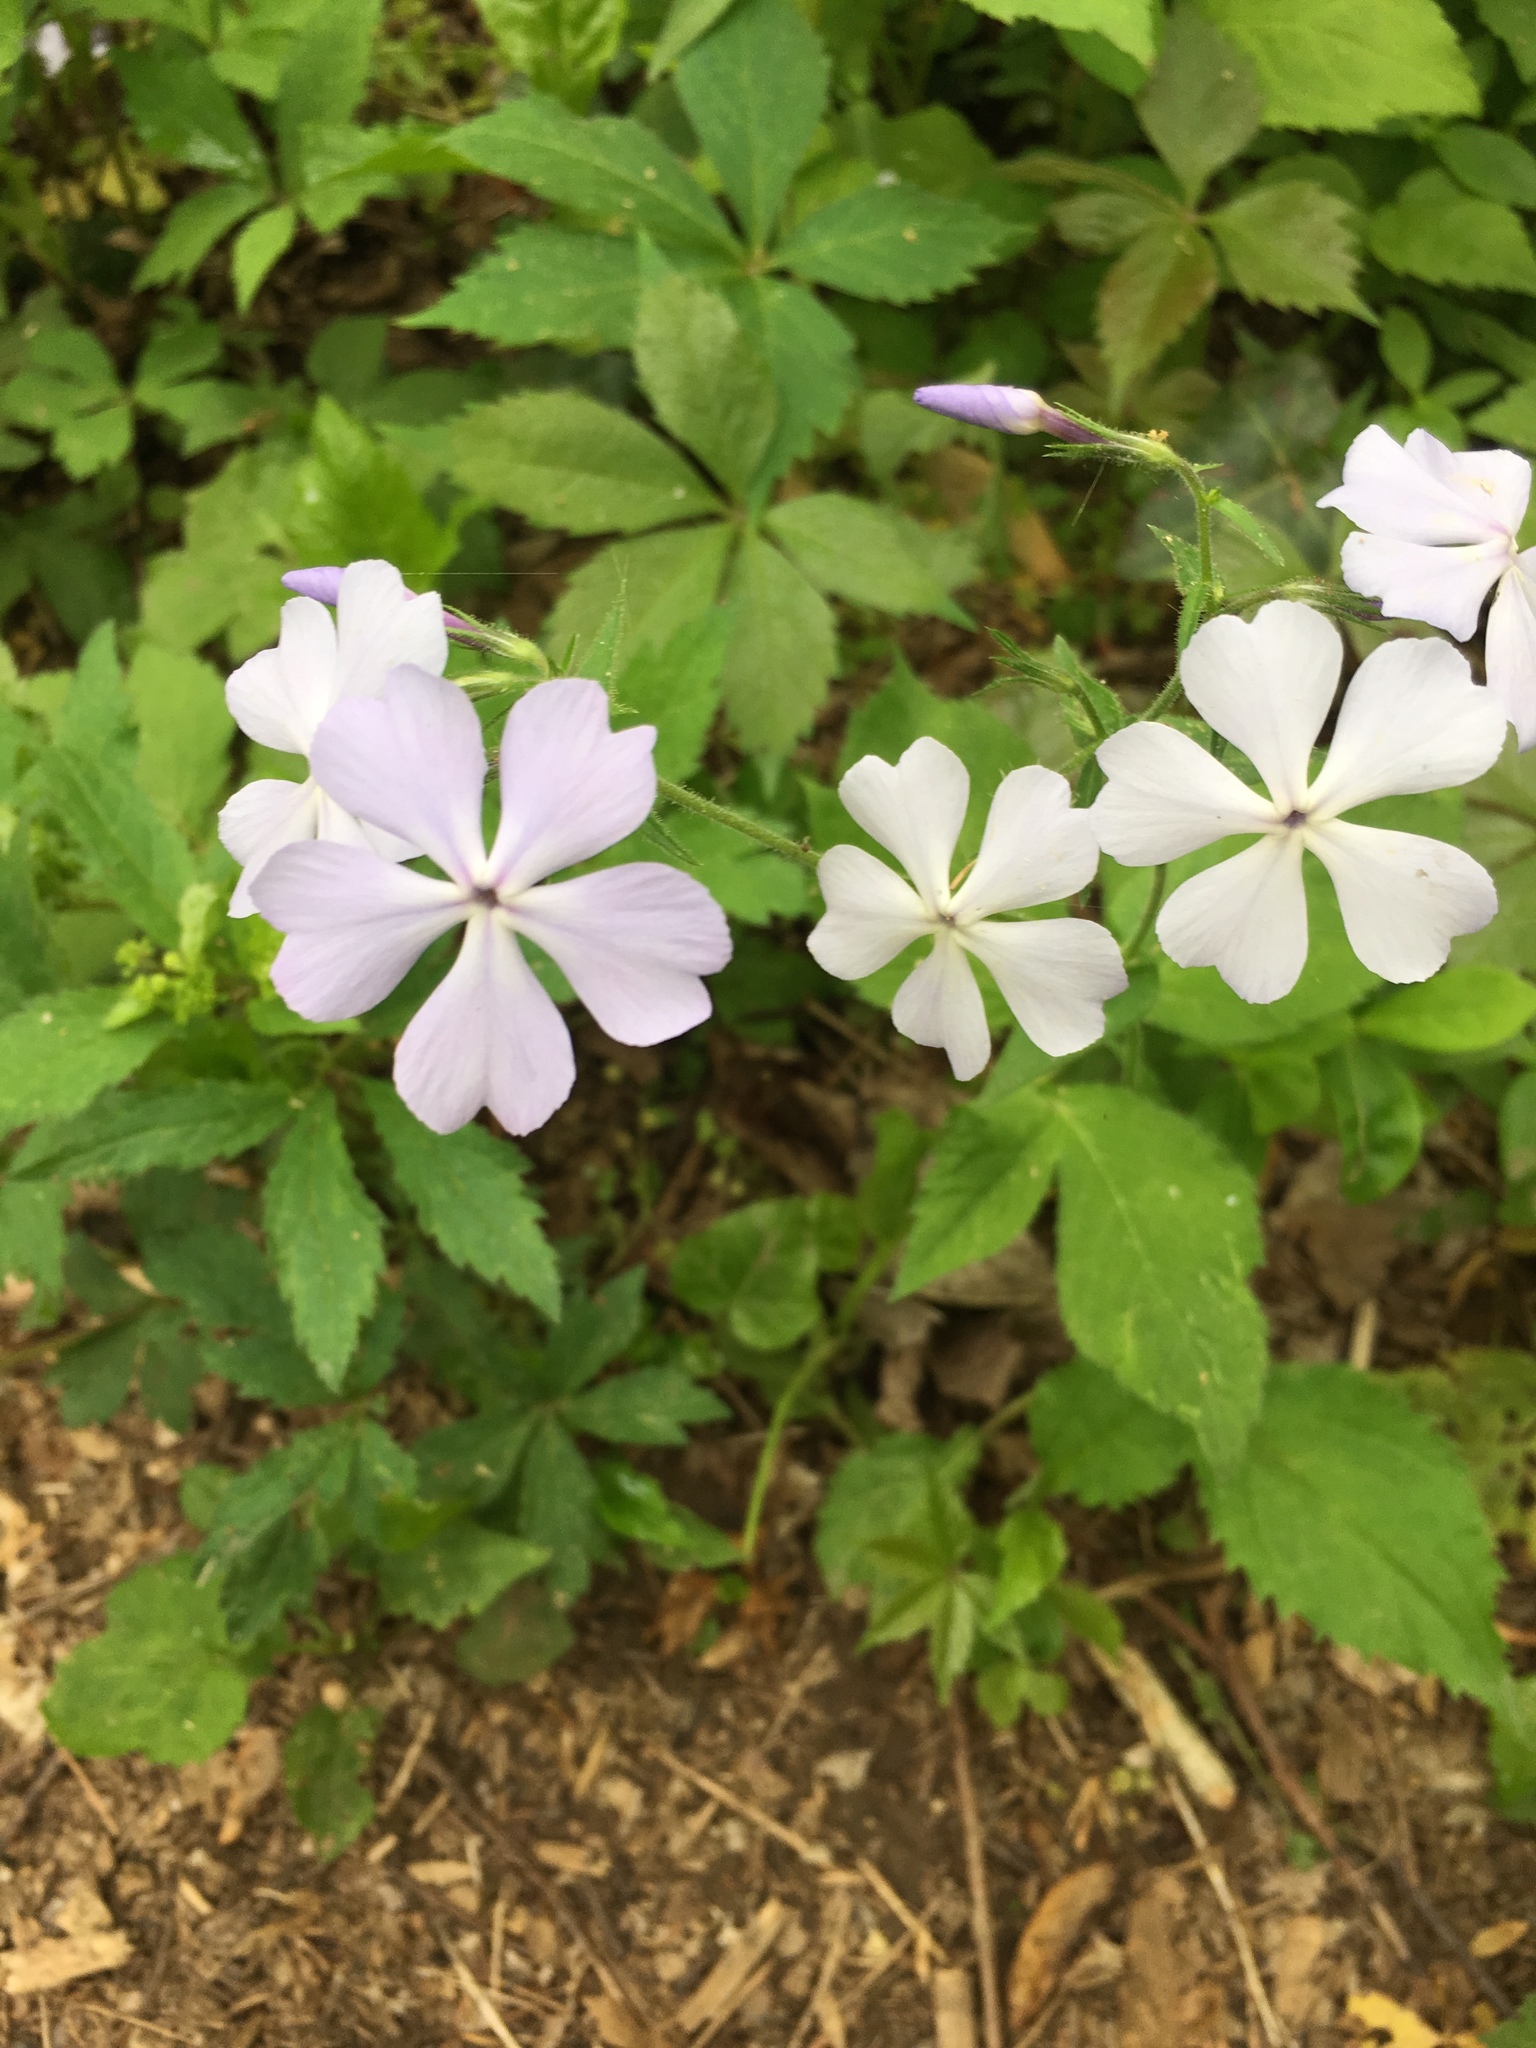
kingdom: Plantae
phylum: Tracheophyta
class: Magnoliopsida
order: Ericales
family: Polemoniaceae
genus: Phlox
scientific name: Phlox divaricata
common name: Blue phlox
